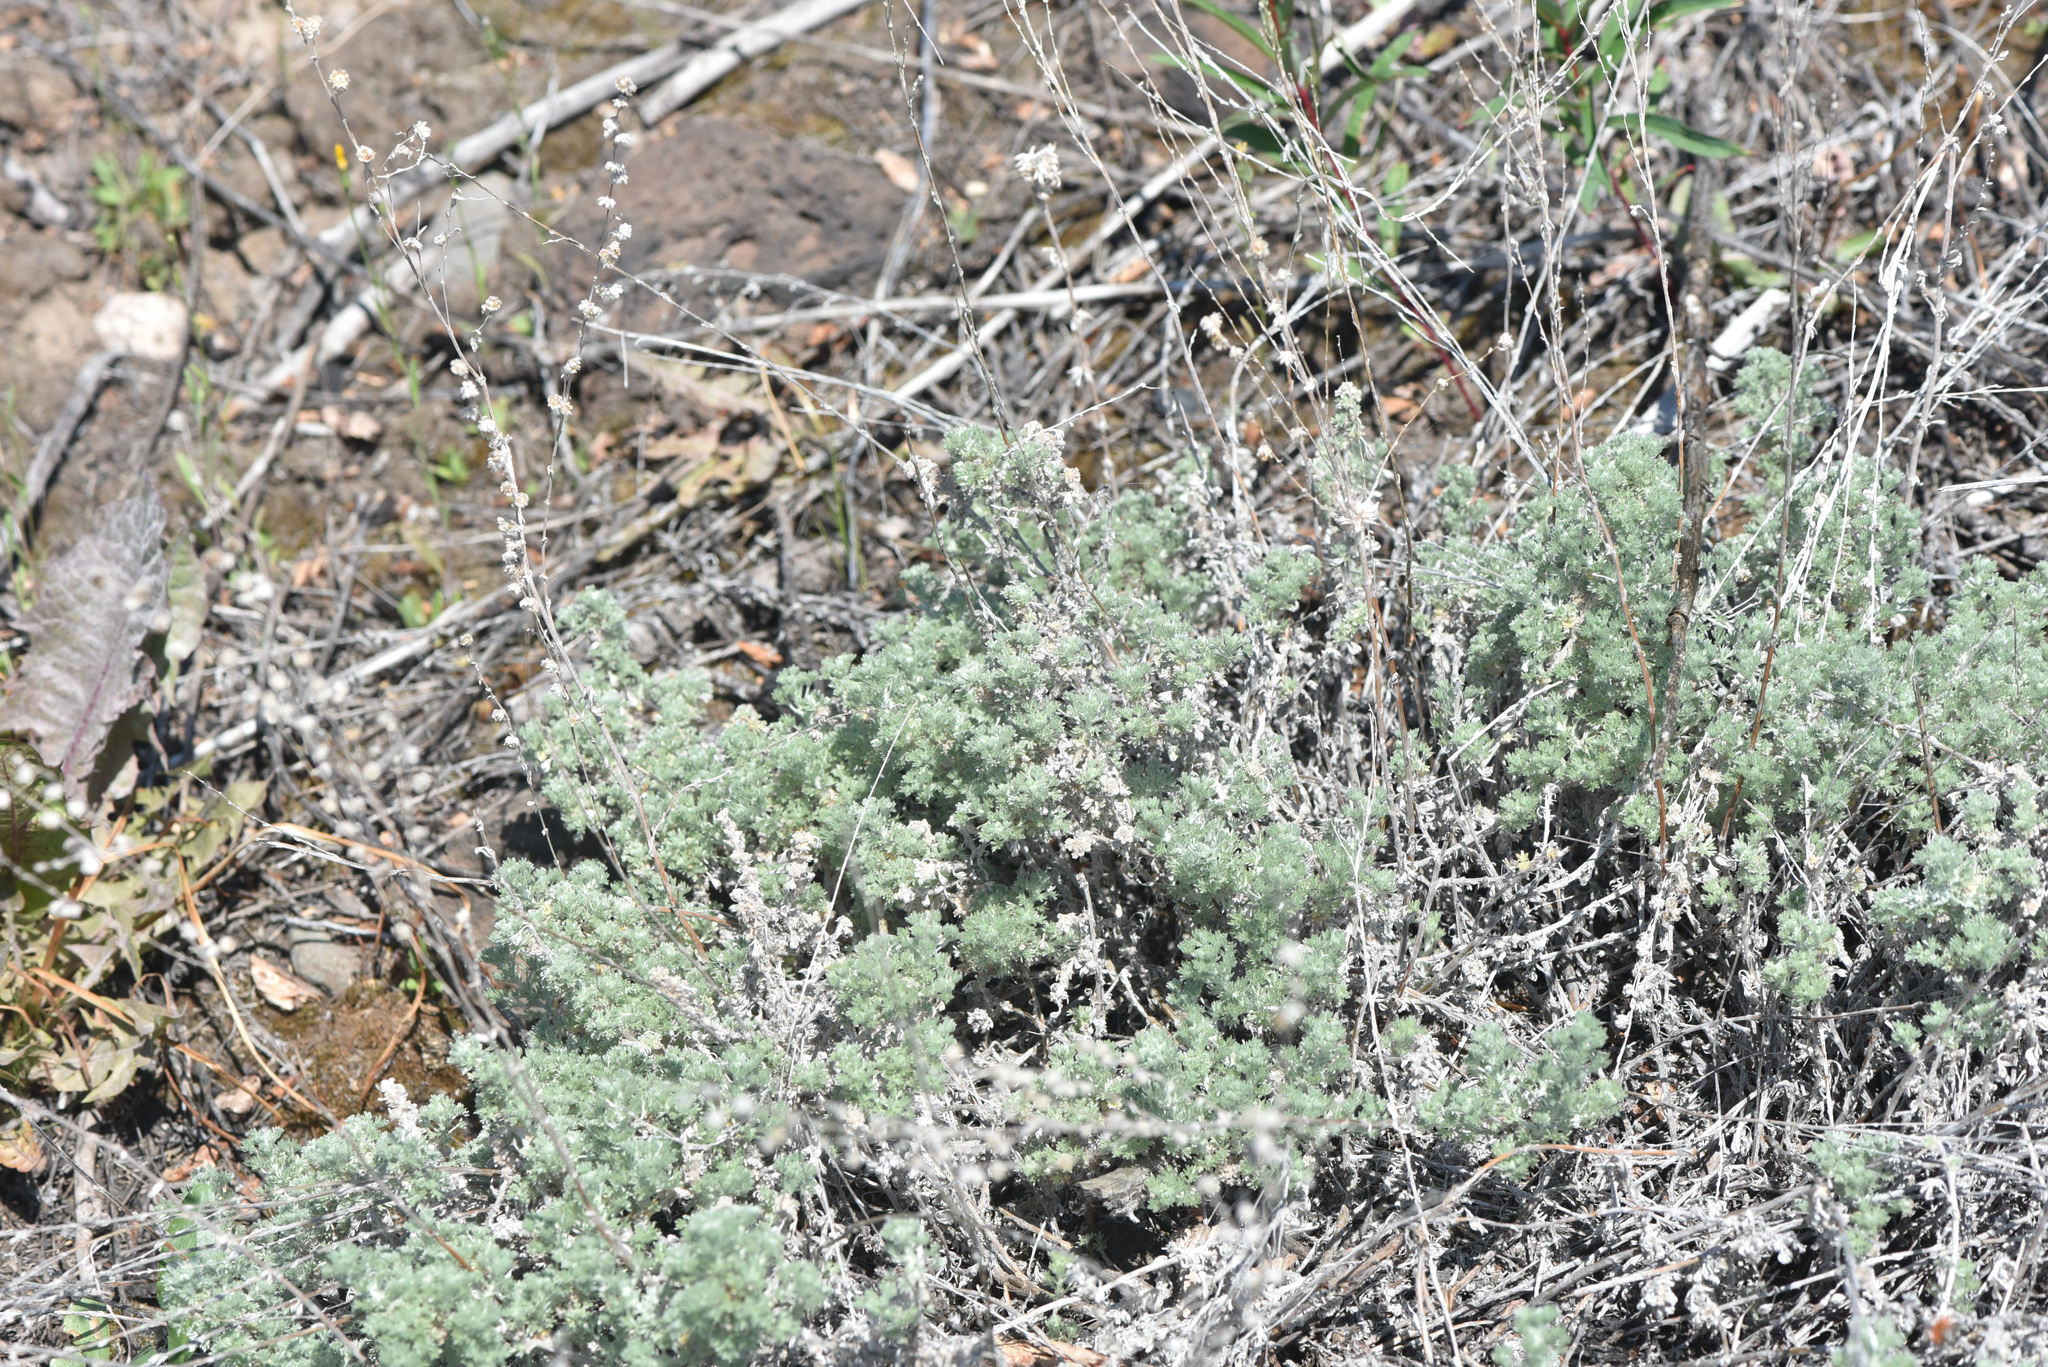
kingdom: Plantae
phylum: Tracheophyta
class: Magnoliopsida
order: Asterales
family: Asteraceae
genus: Artemisia
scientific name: Artemisia frigida
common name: Prairie sagewort
